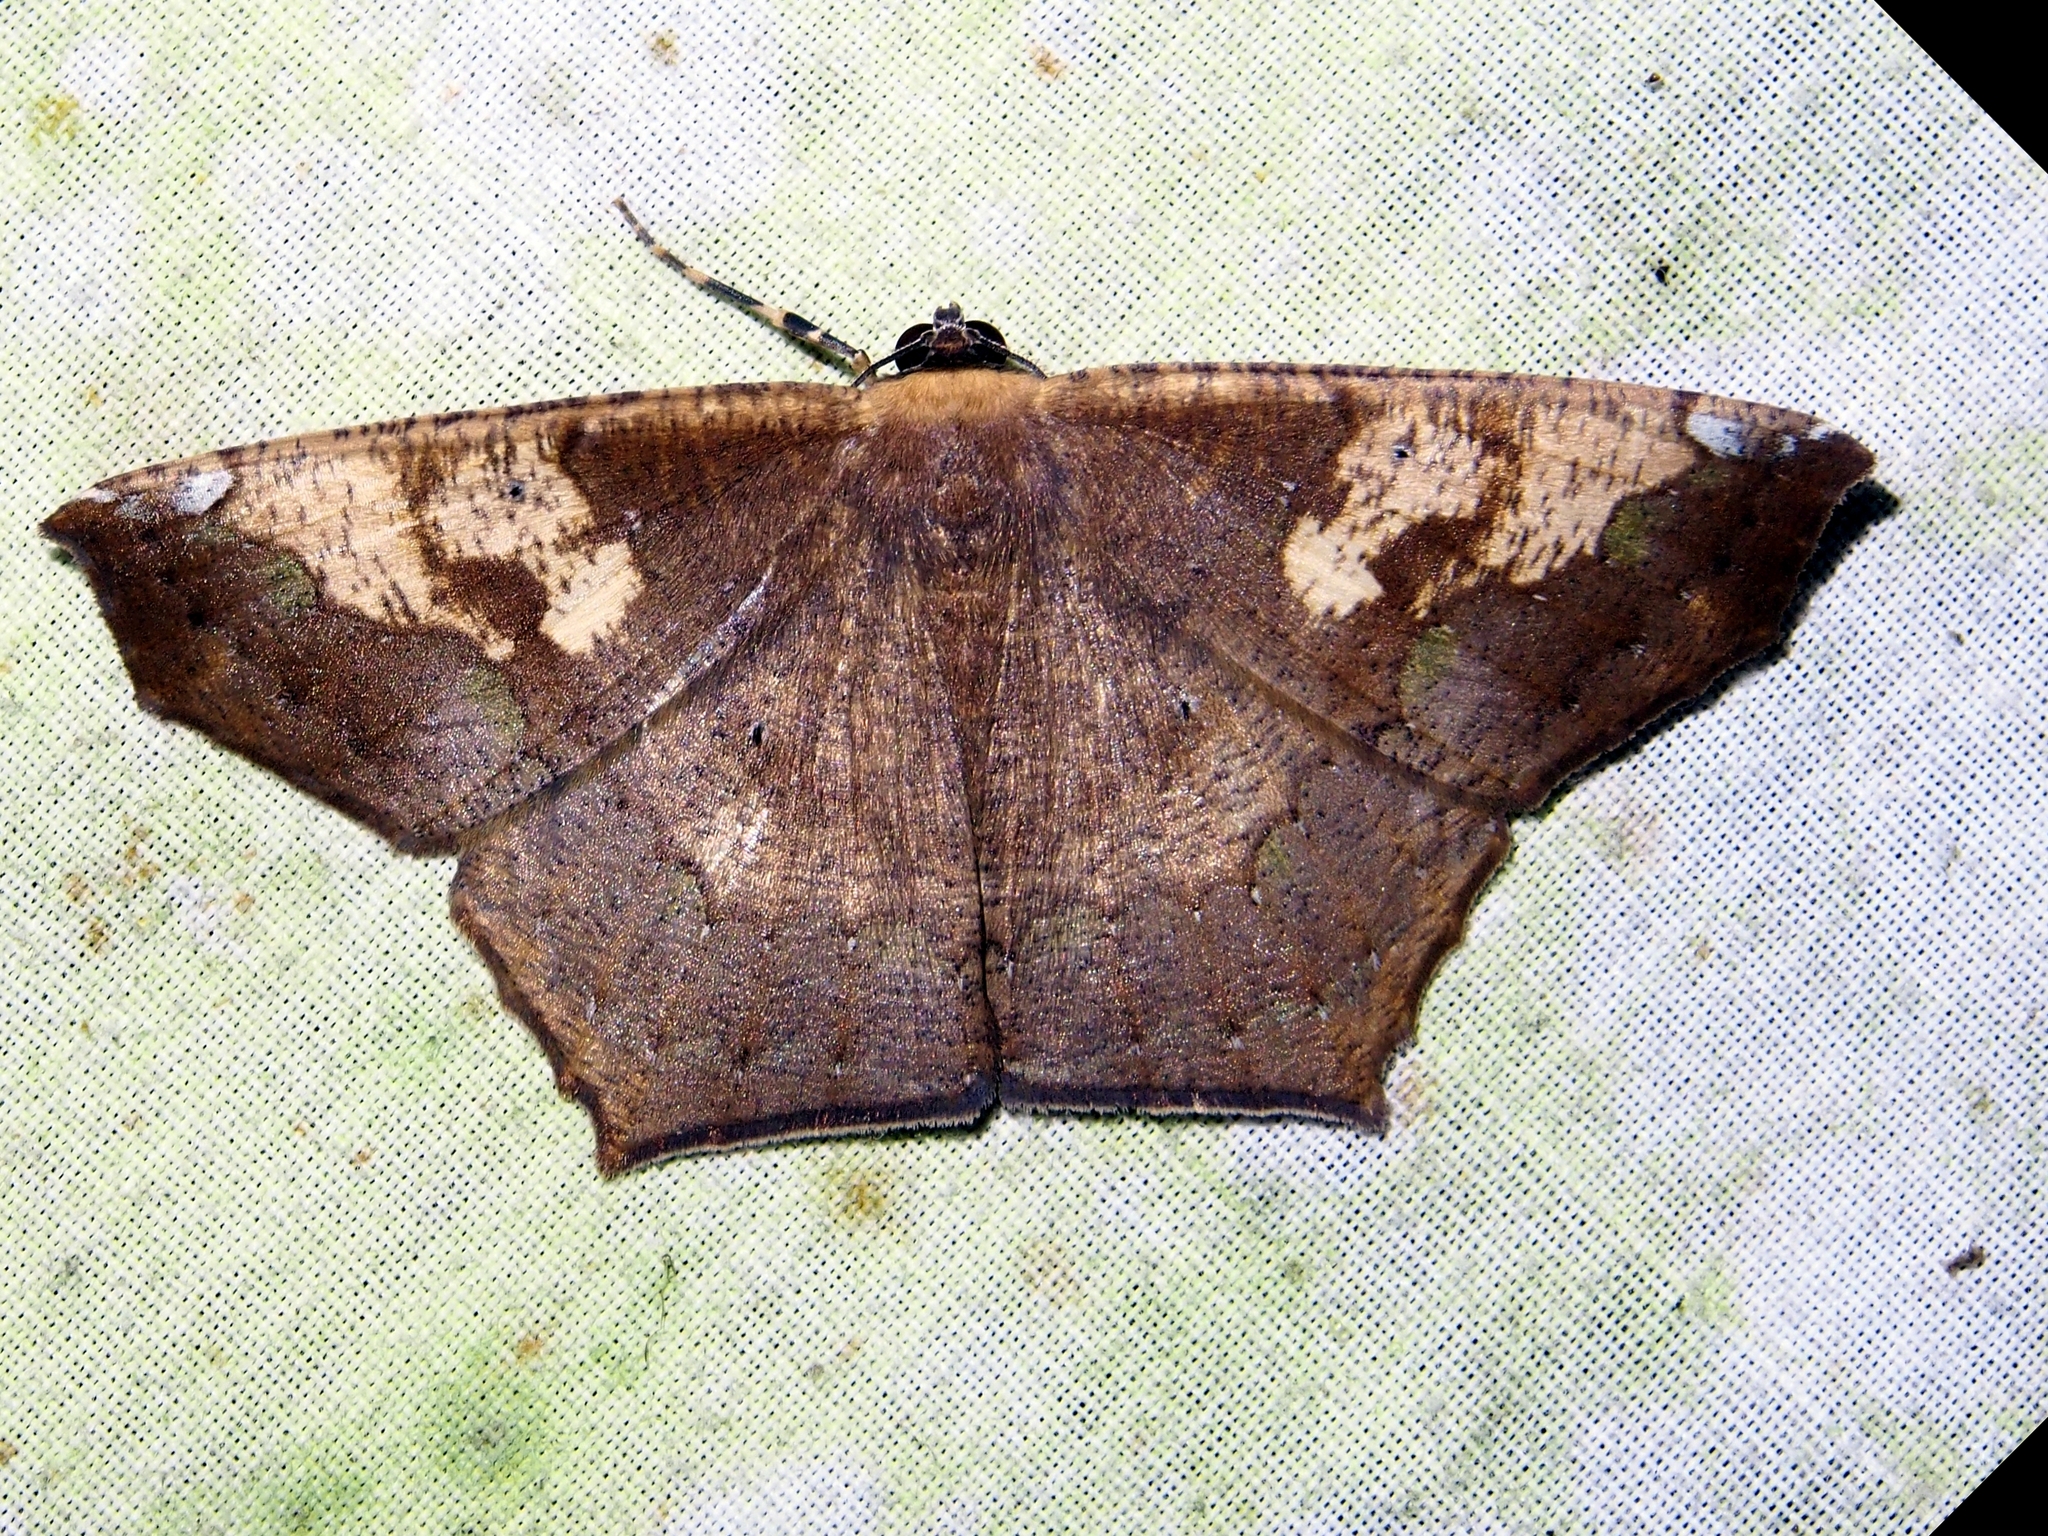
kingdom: Animalia
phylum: Arthropoda
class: Insecta
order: Lepidoptera
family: Geometridae
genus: Paragonia
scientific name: Paragonia cruraria
